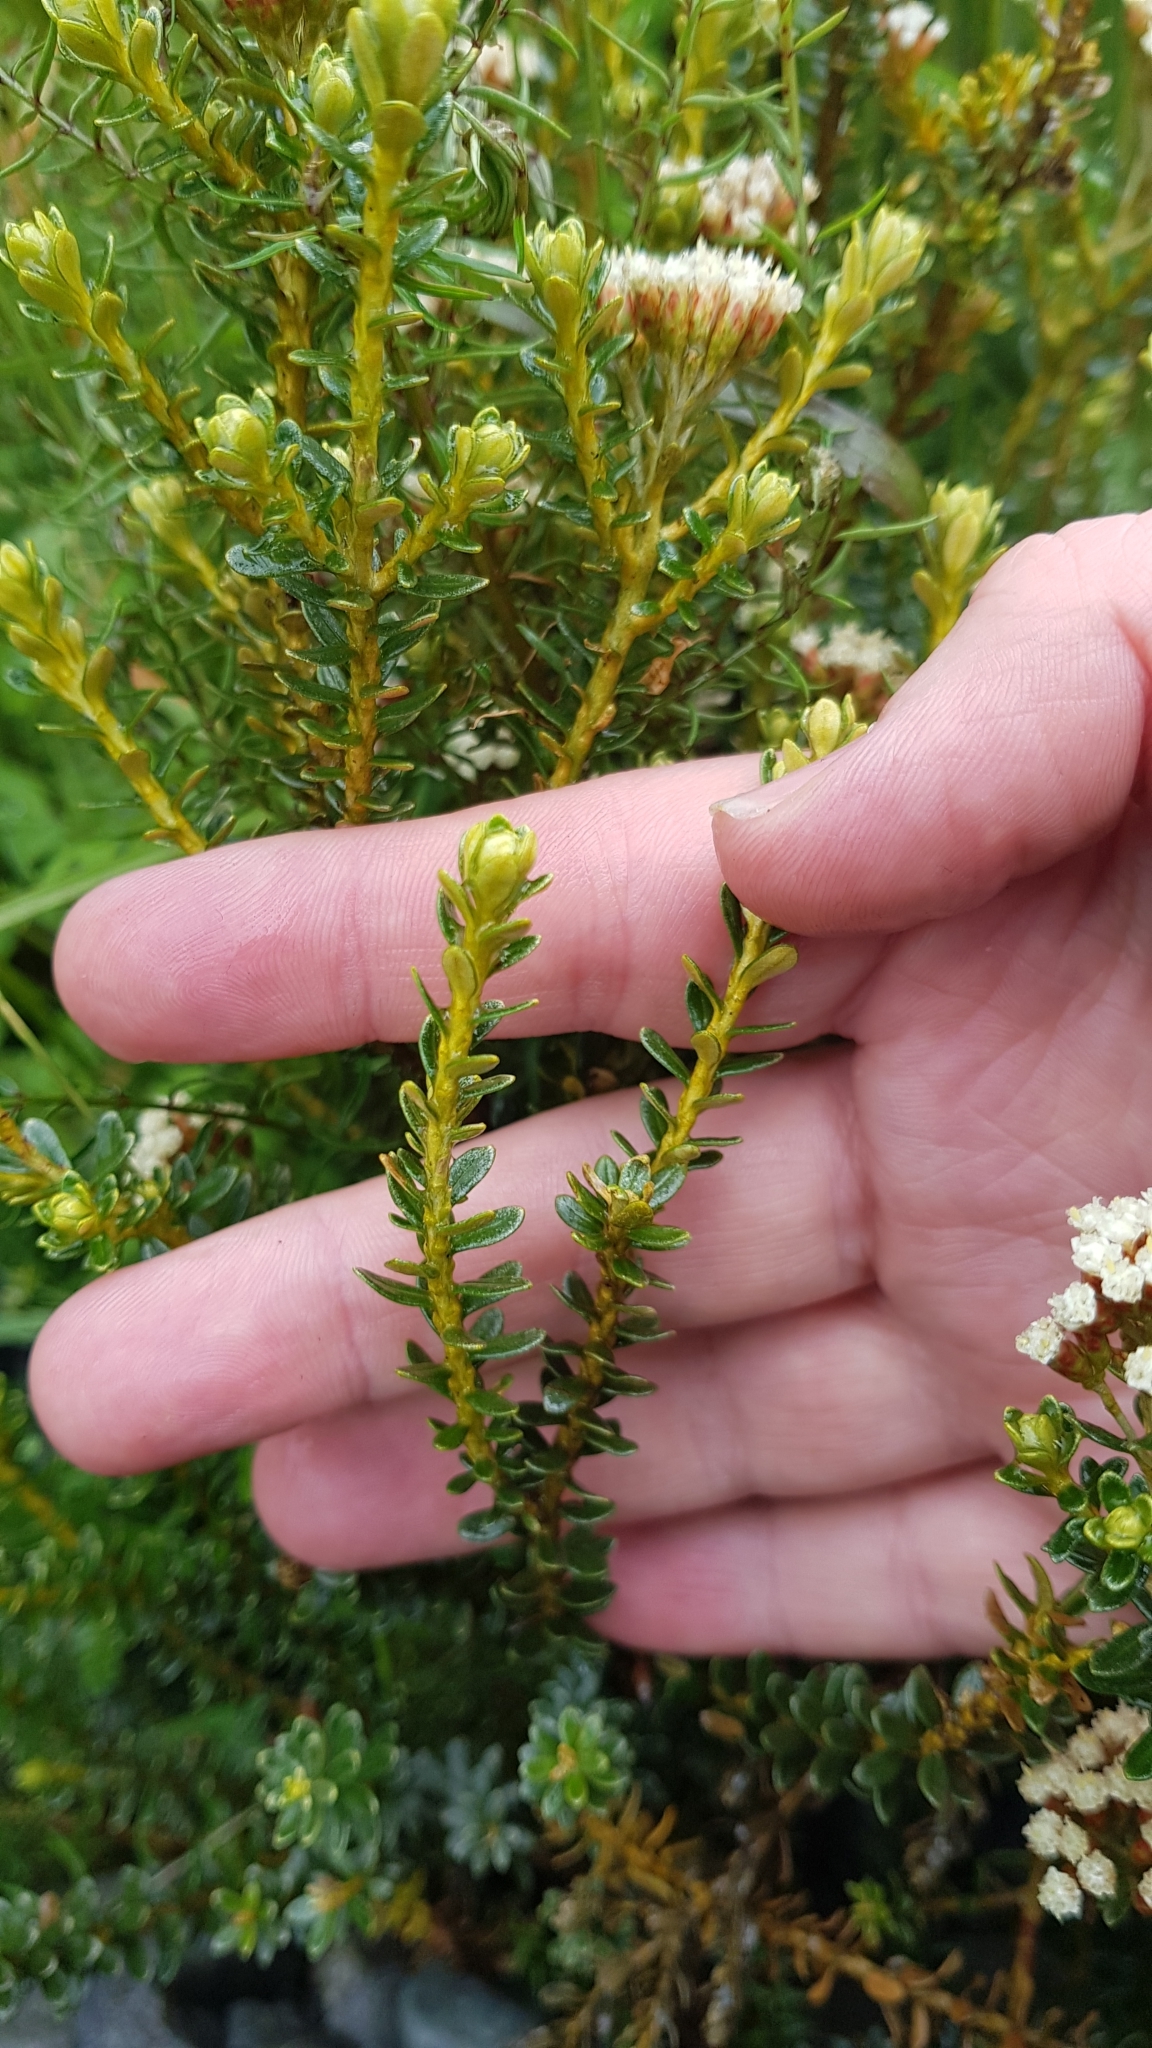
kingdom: Plantae
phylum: Tracheophyta
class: Magnoliopsida
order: Asterales
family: Asteraceae
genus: Ozothamnus
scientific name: Ozothamnus leptophyllus
